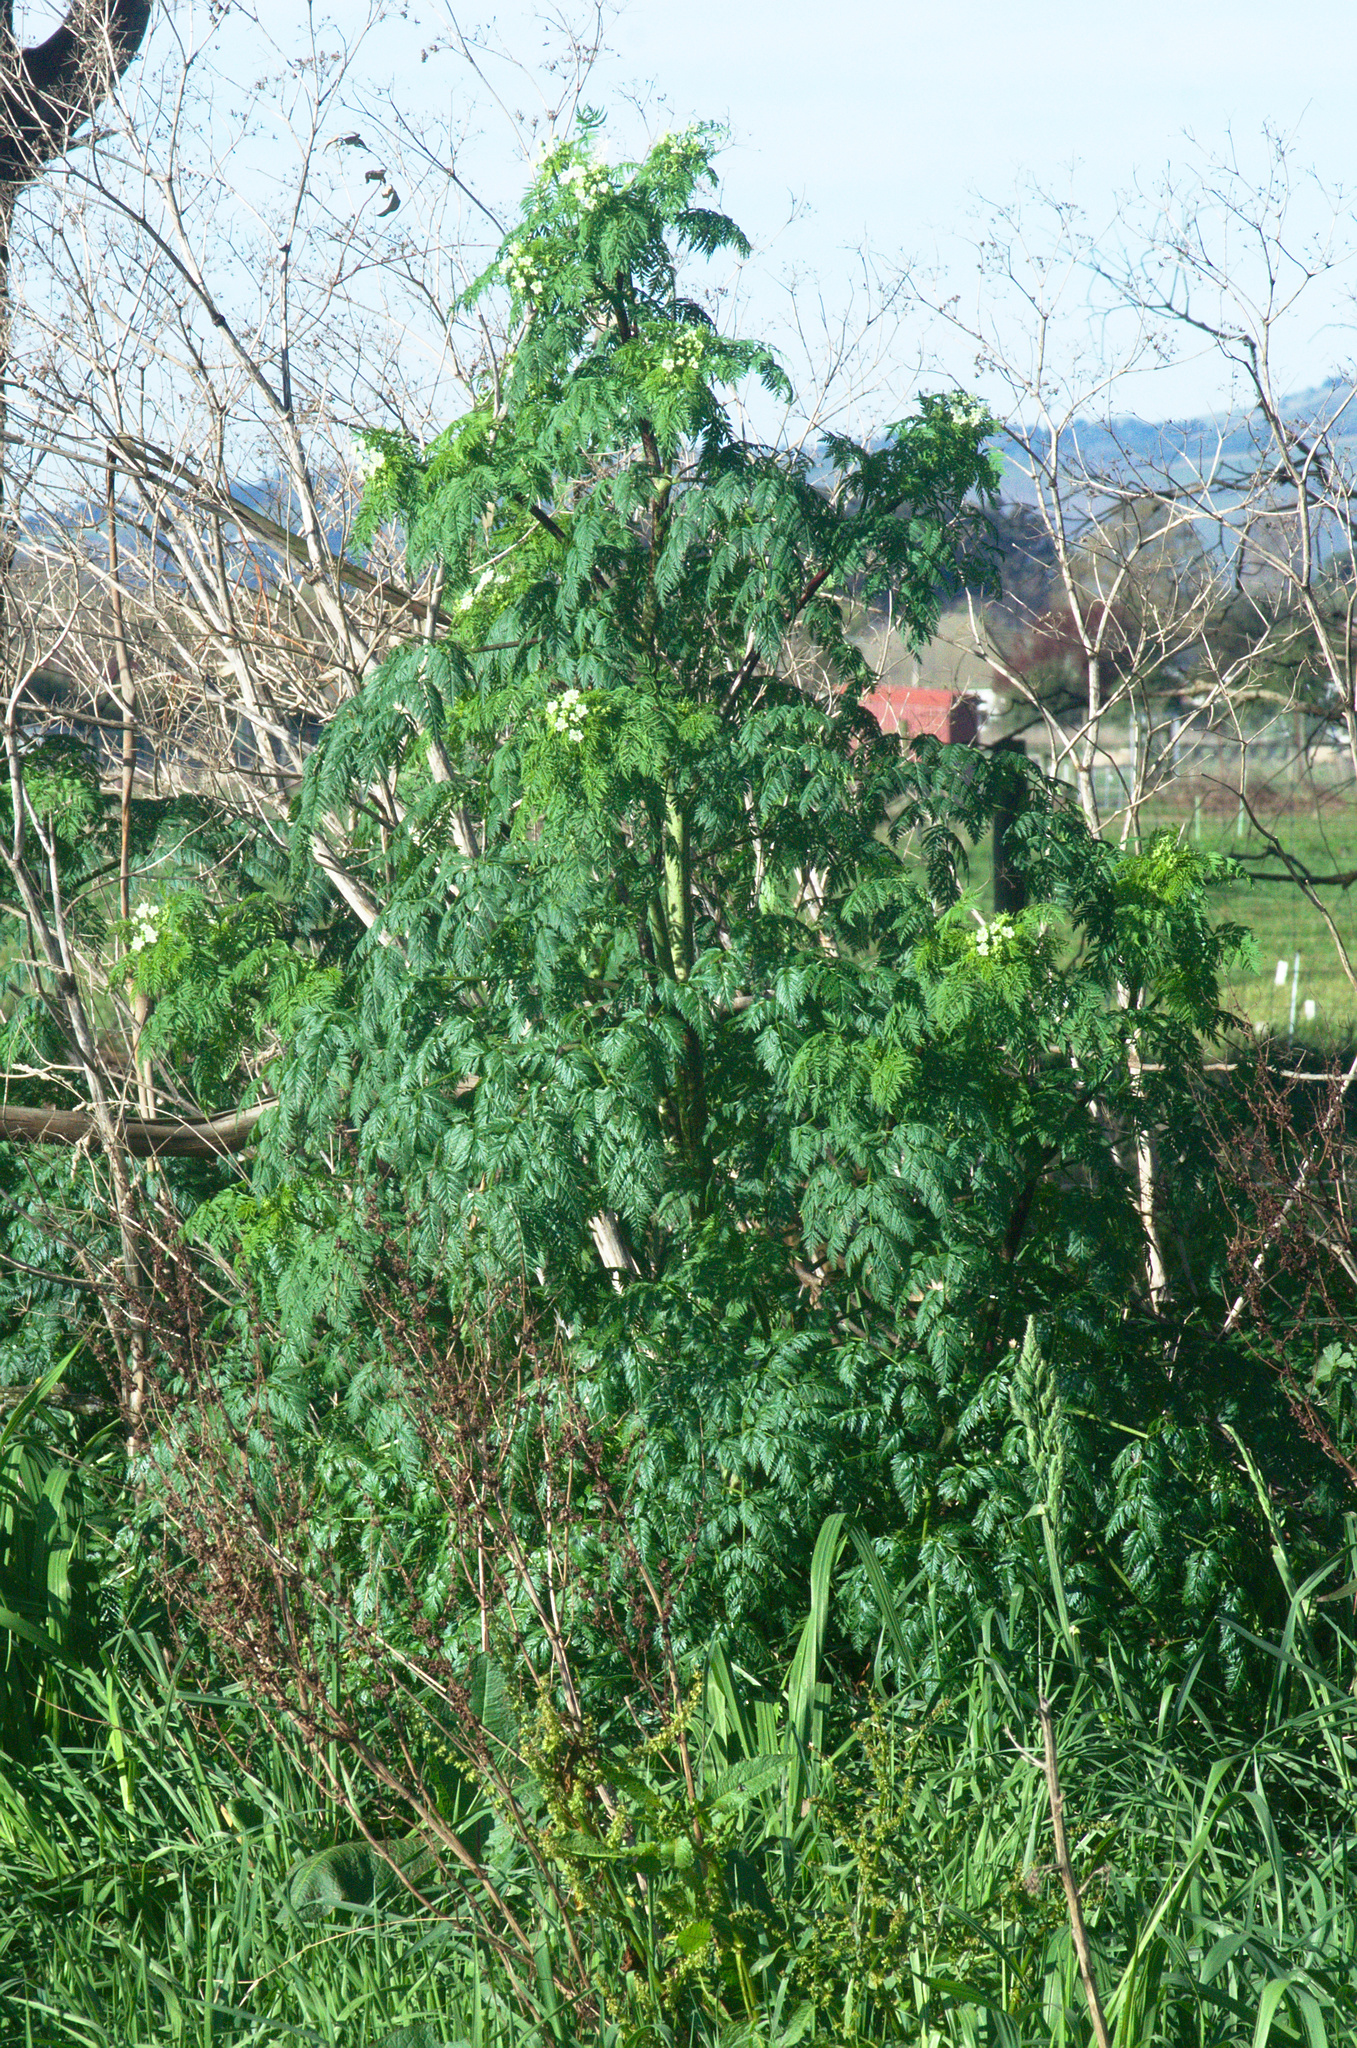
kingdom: Plantae
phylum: Tracheophyta
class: Magnoliopsida
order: Apiales
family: Apiaceae
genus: Conium
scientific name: Conium maculatum
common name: Hemlock
